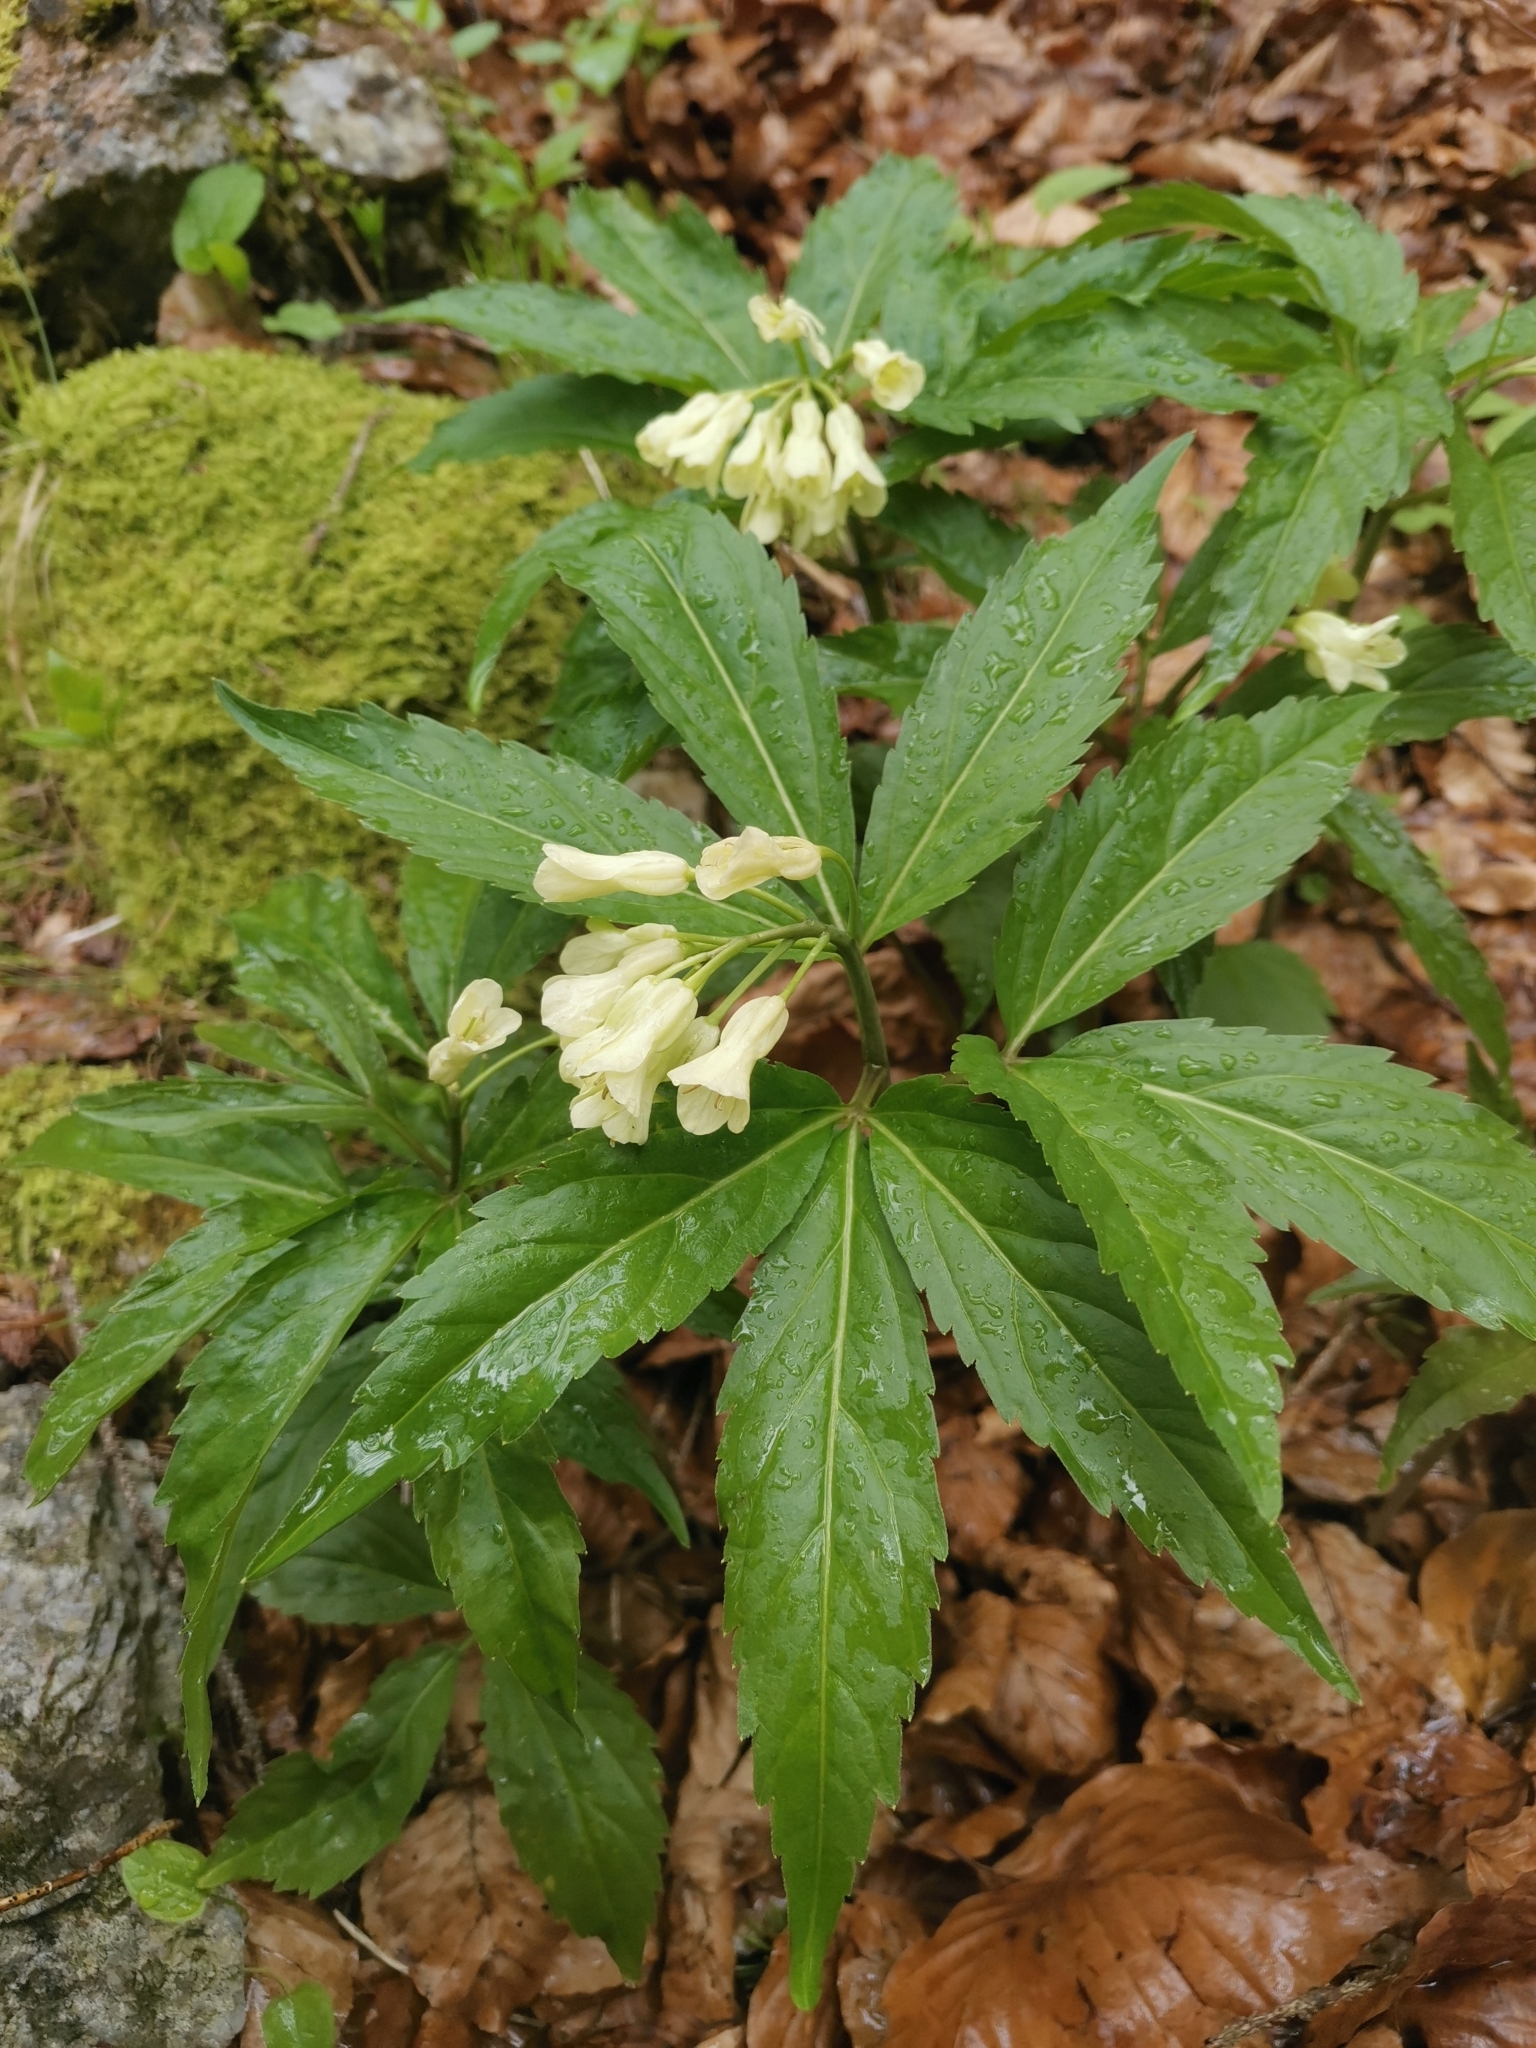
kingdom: Plantae
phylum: Tracheophyta
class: Magnoliopsida
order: Brassicales
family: Brassicaceae
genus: Cardamine
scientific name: Cardamine enneaphyllos
